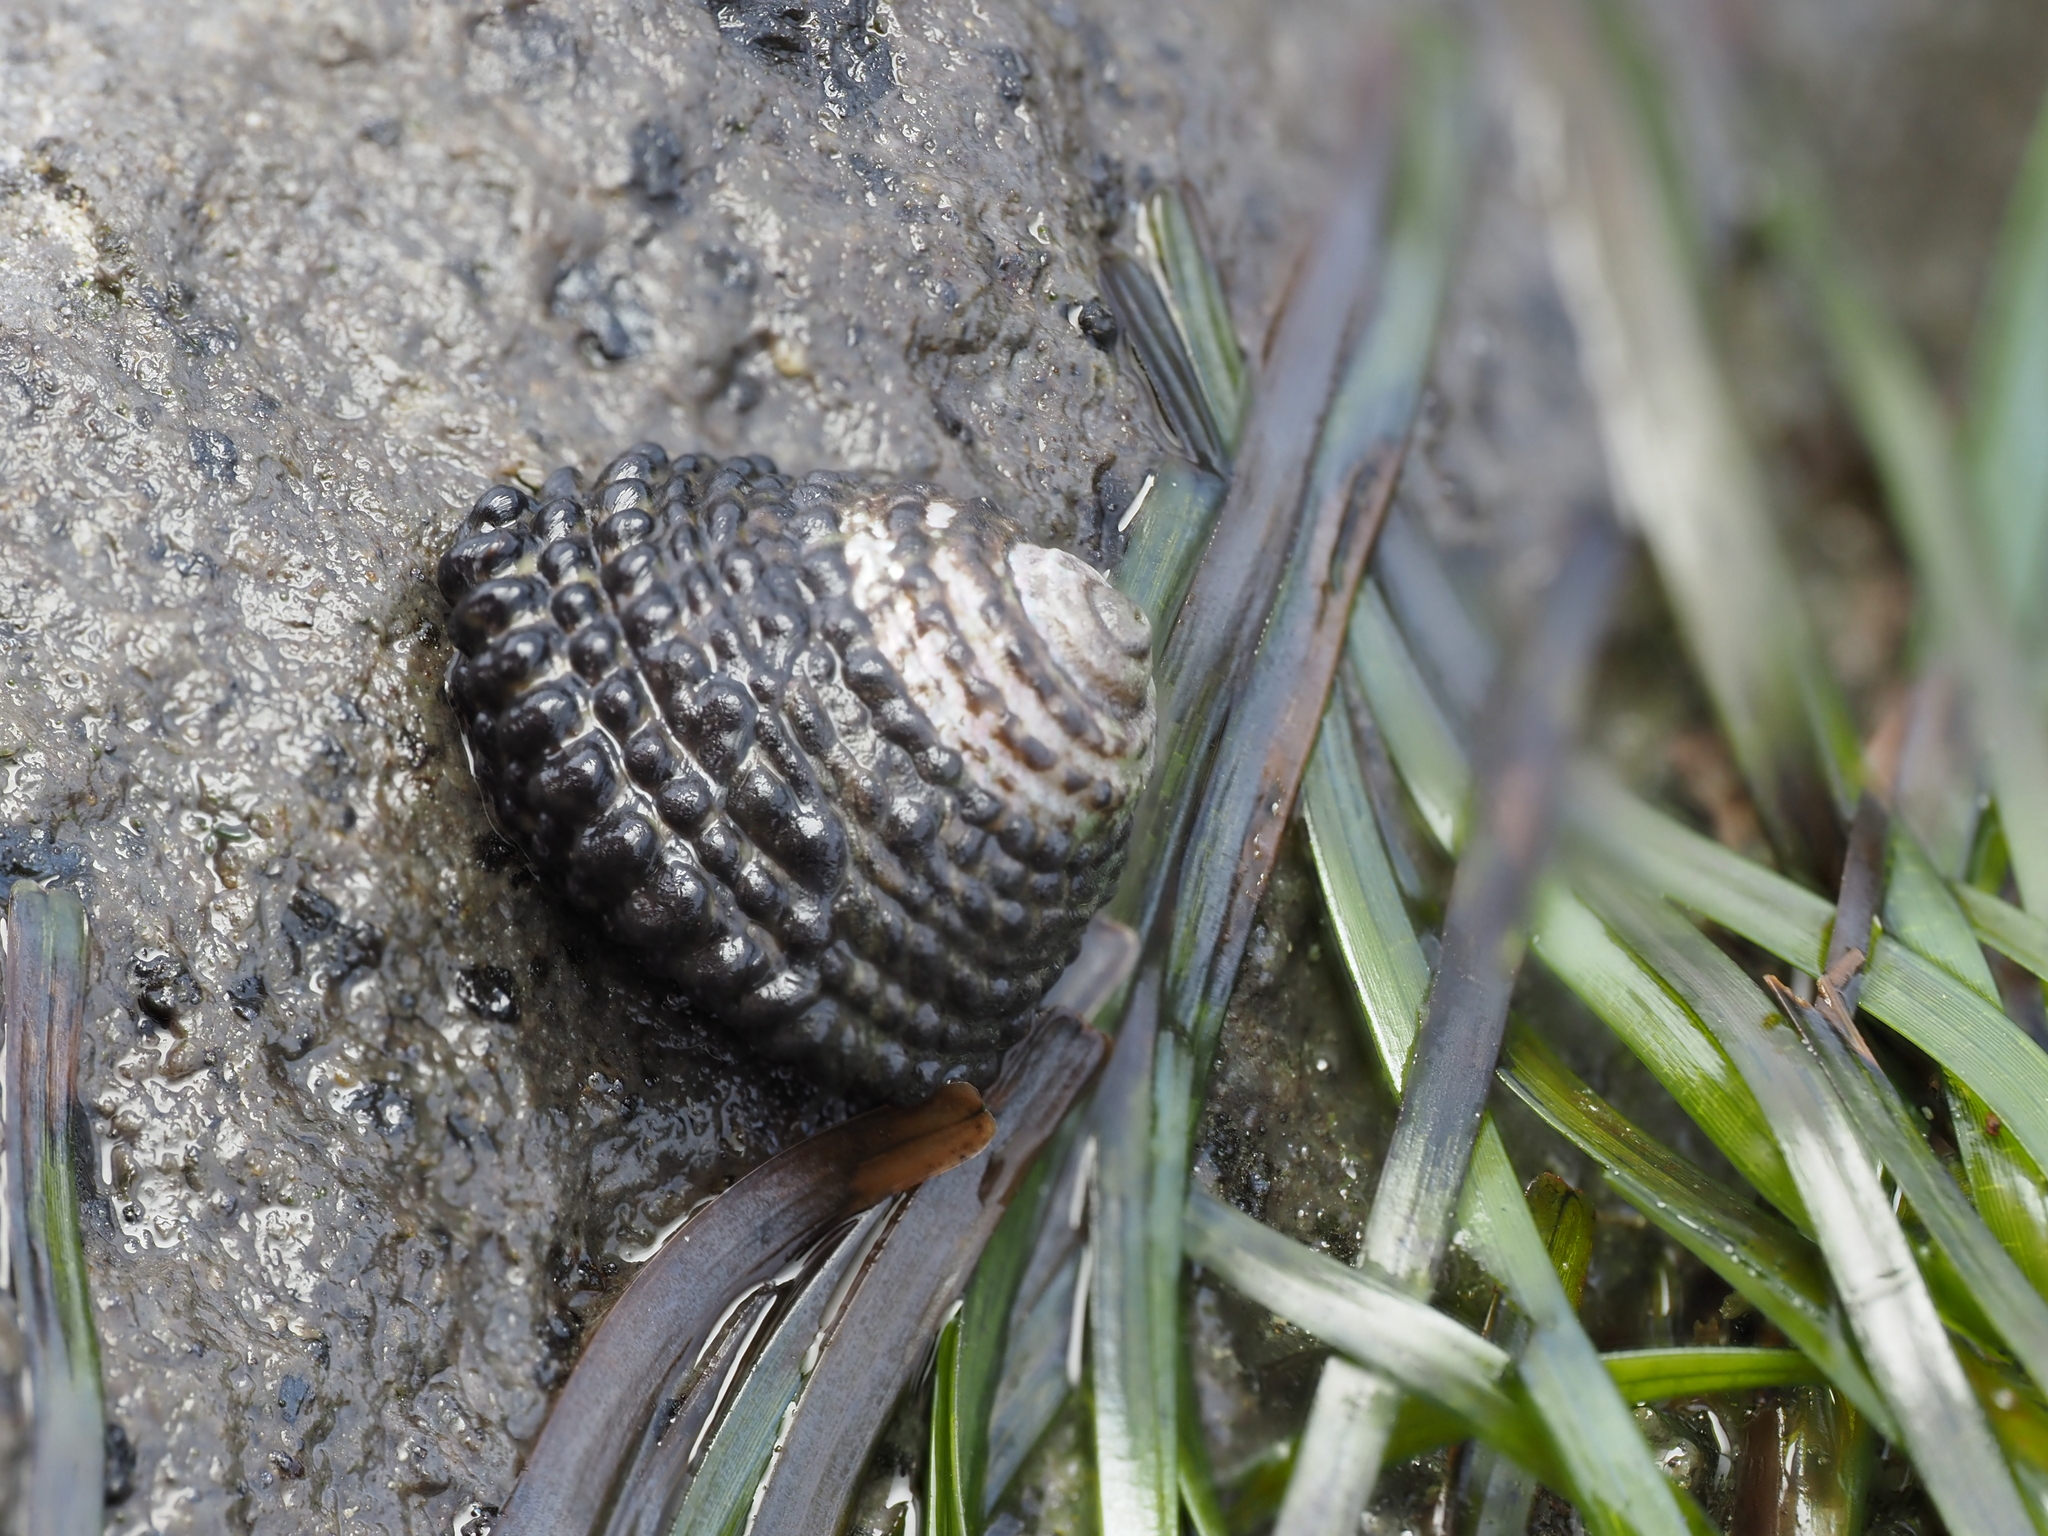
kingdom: Animalia
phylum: Mollusca
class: Gastropoda
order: Trochida
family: Trochidae
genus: Diloma
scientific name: Diloma bicanaliculatum
